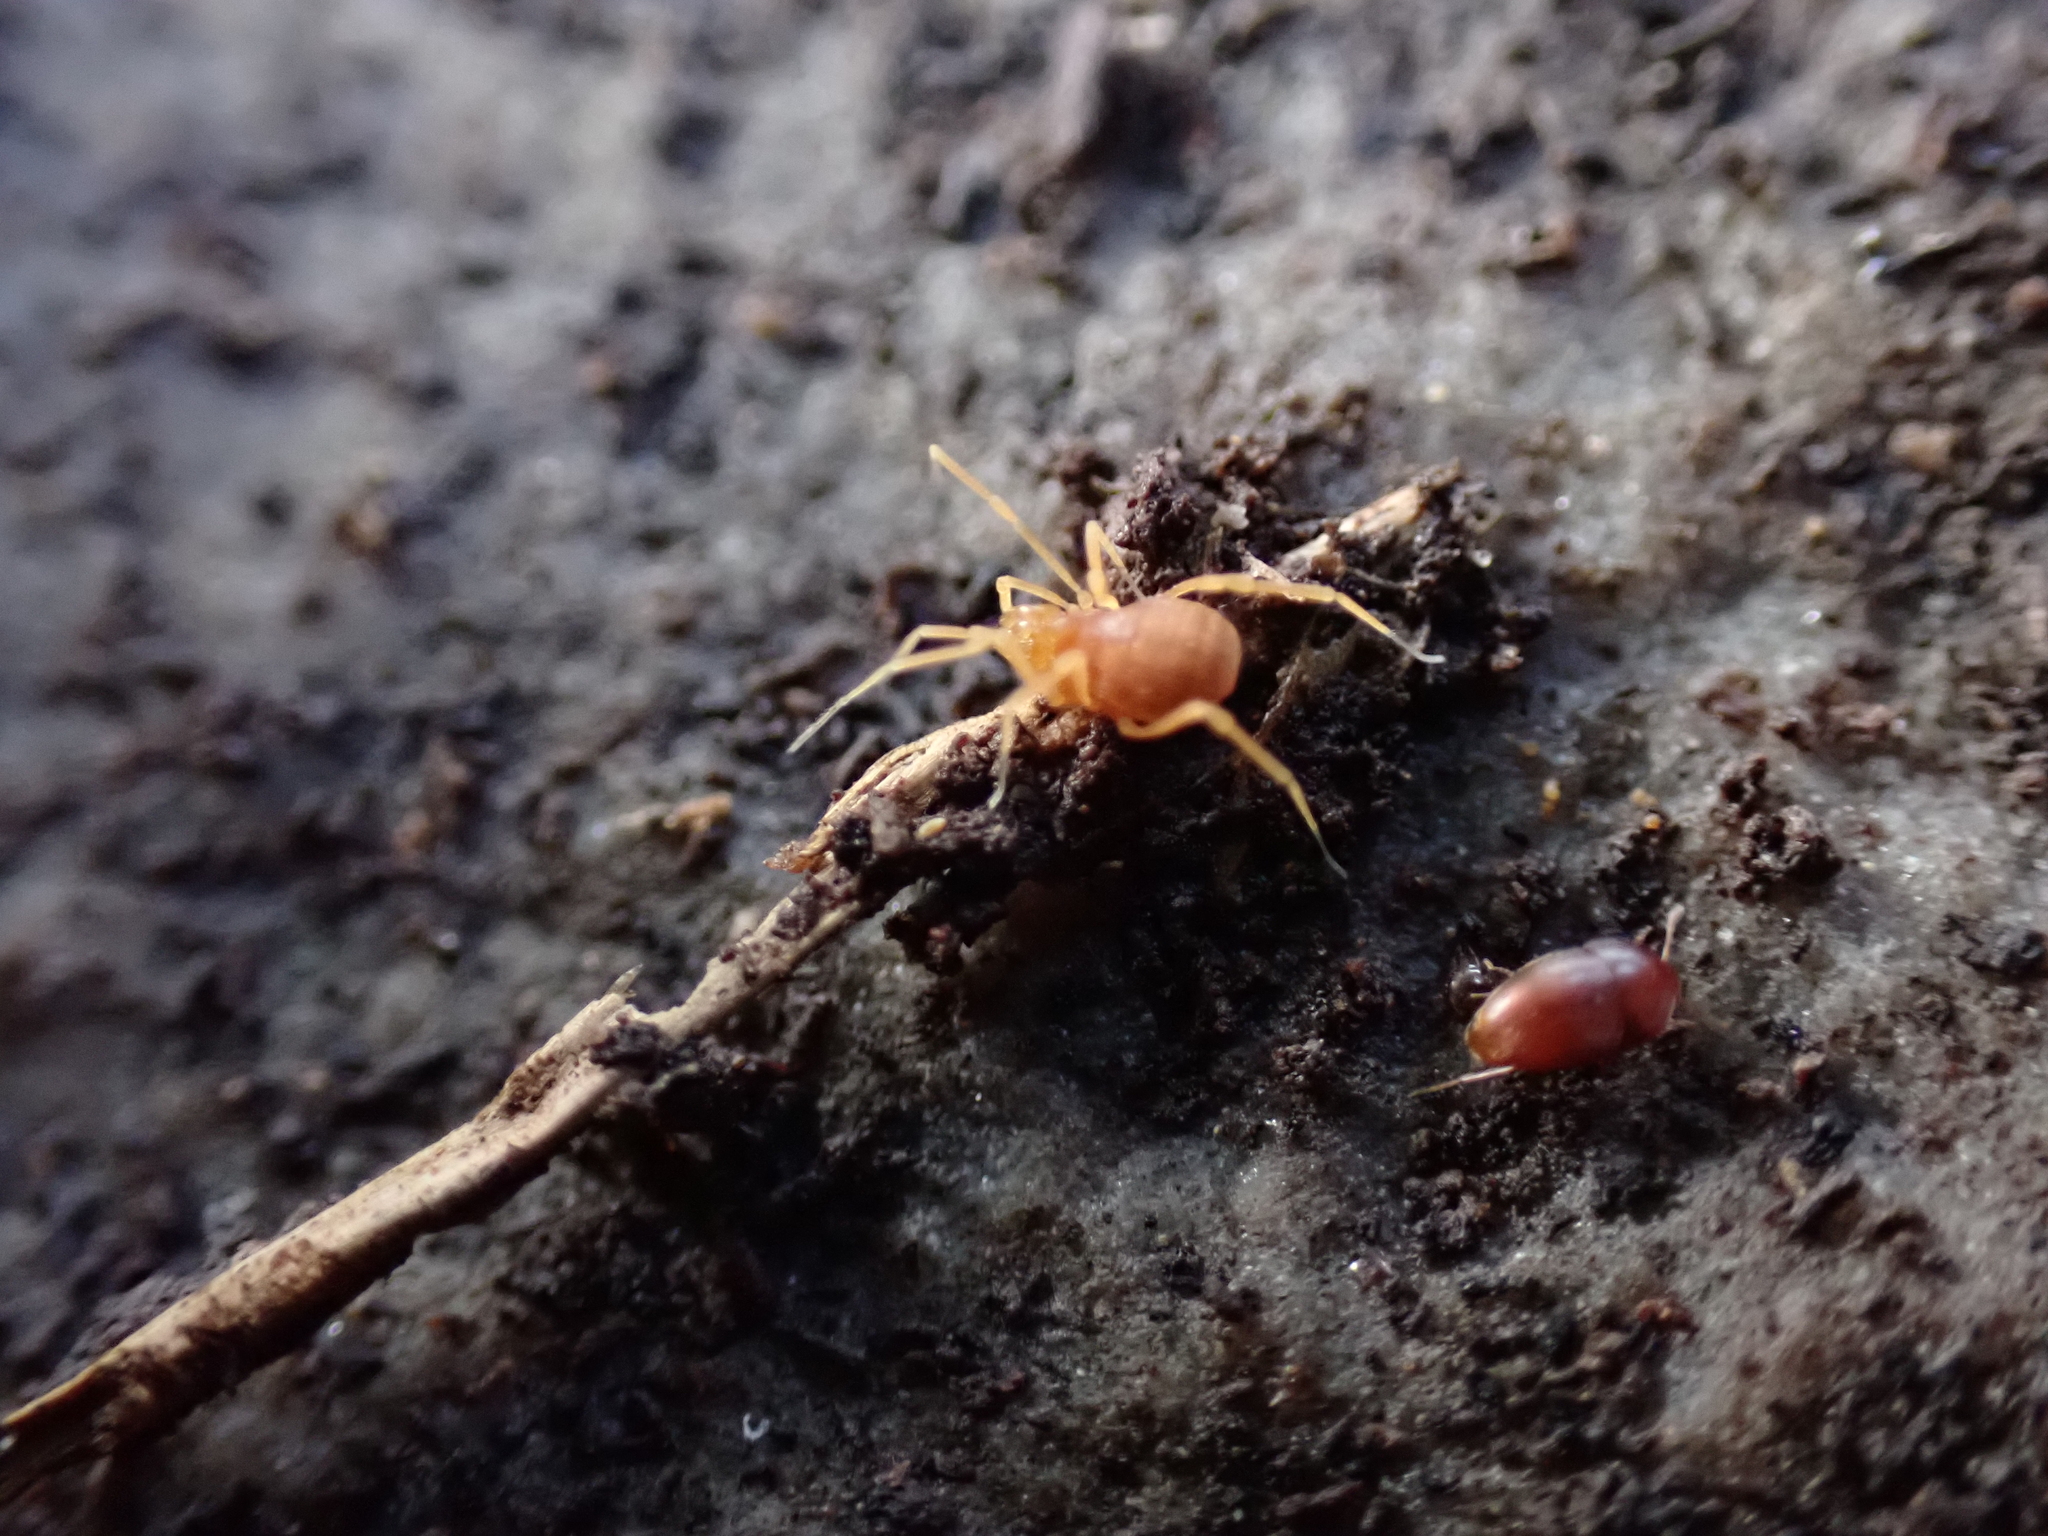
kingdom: Animalia
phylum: Arthropoda
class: Arachnida
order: Opiliones
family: Phalangodidae
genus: Scotolemon
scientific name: Scotolemon doriae
